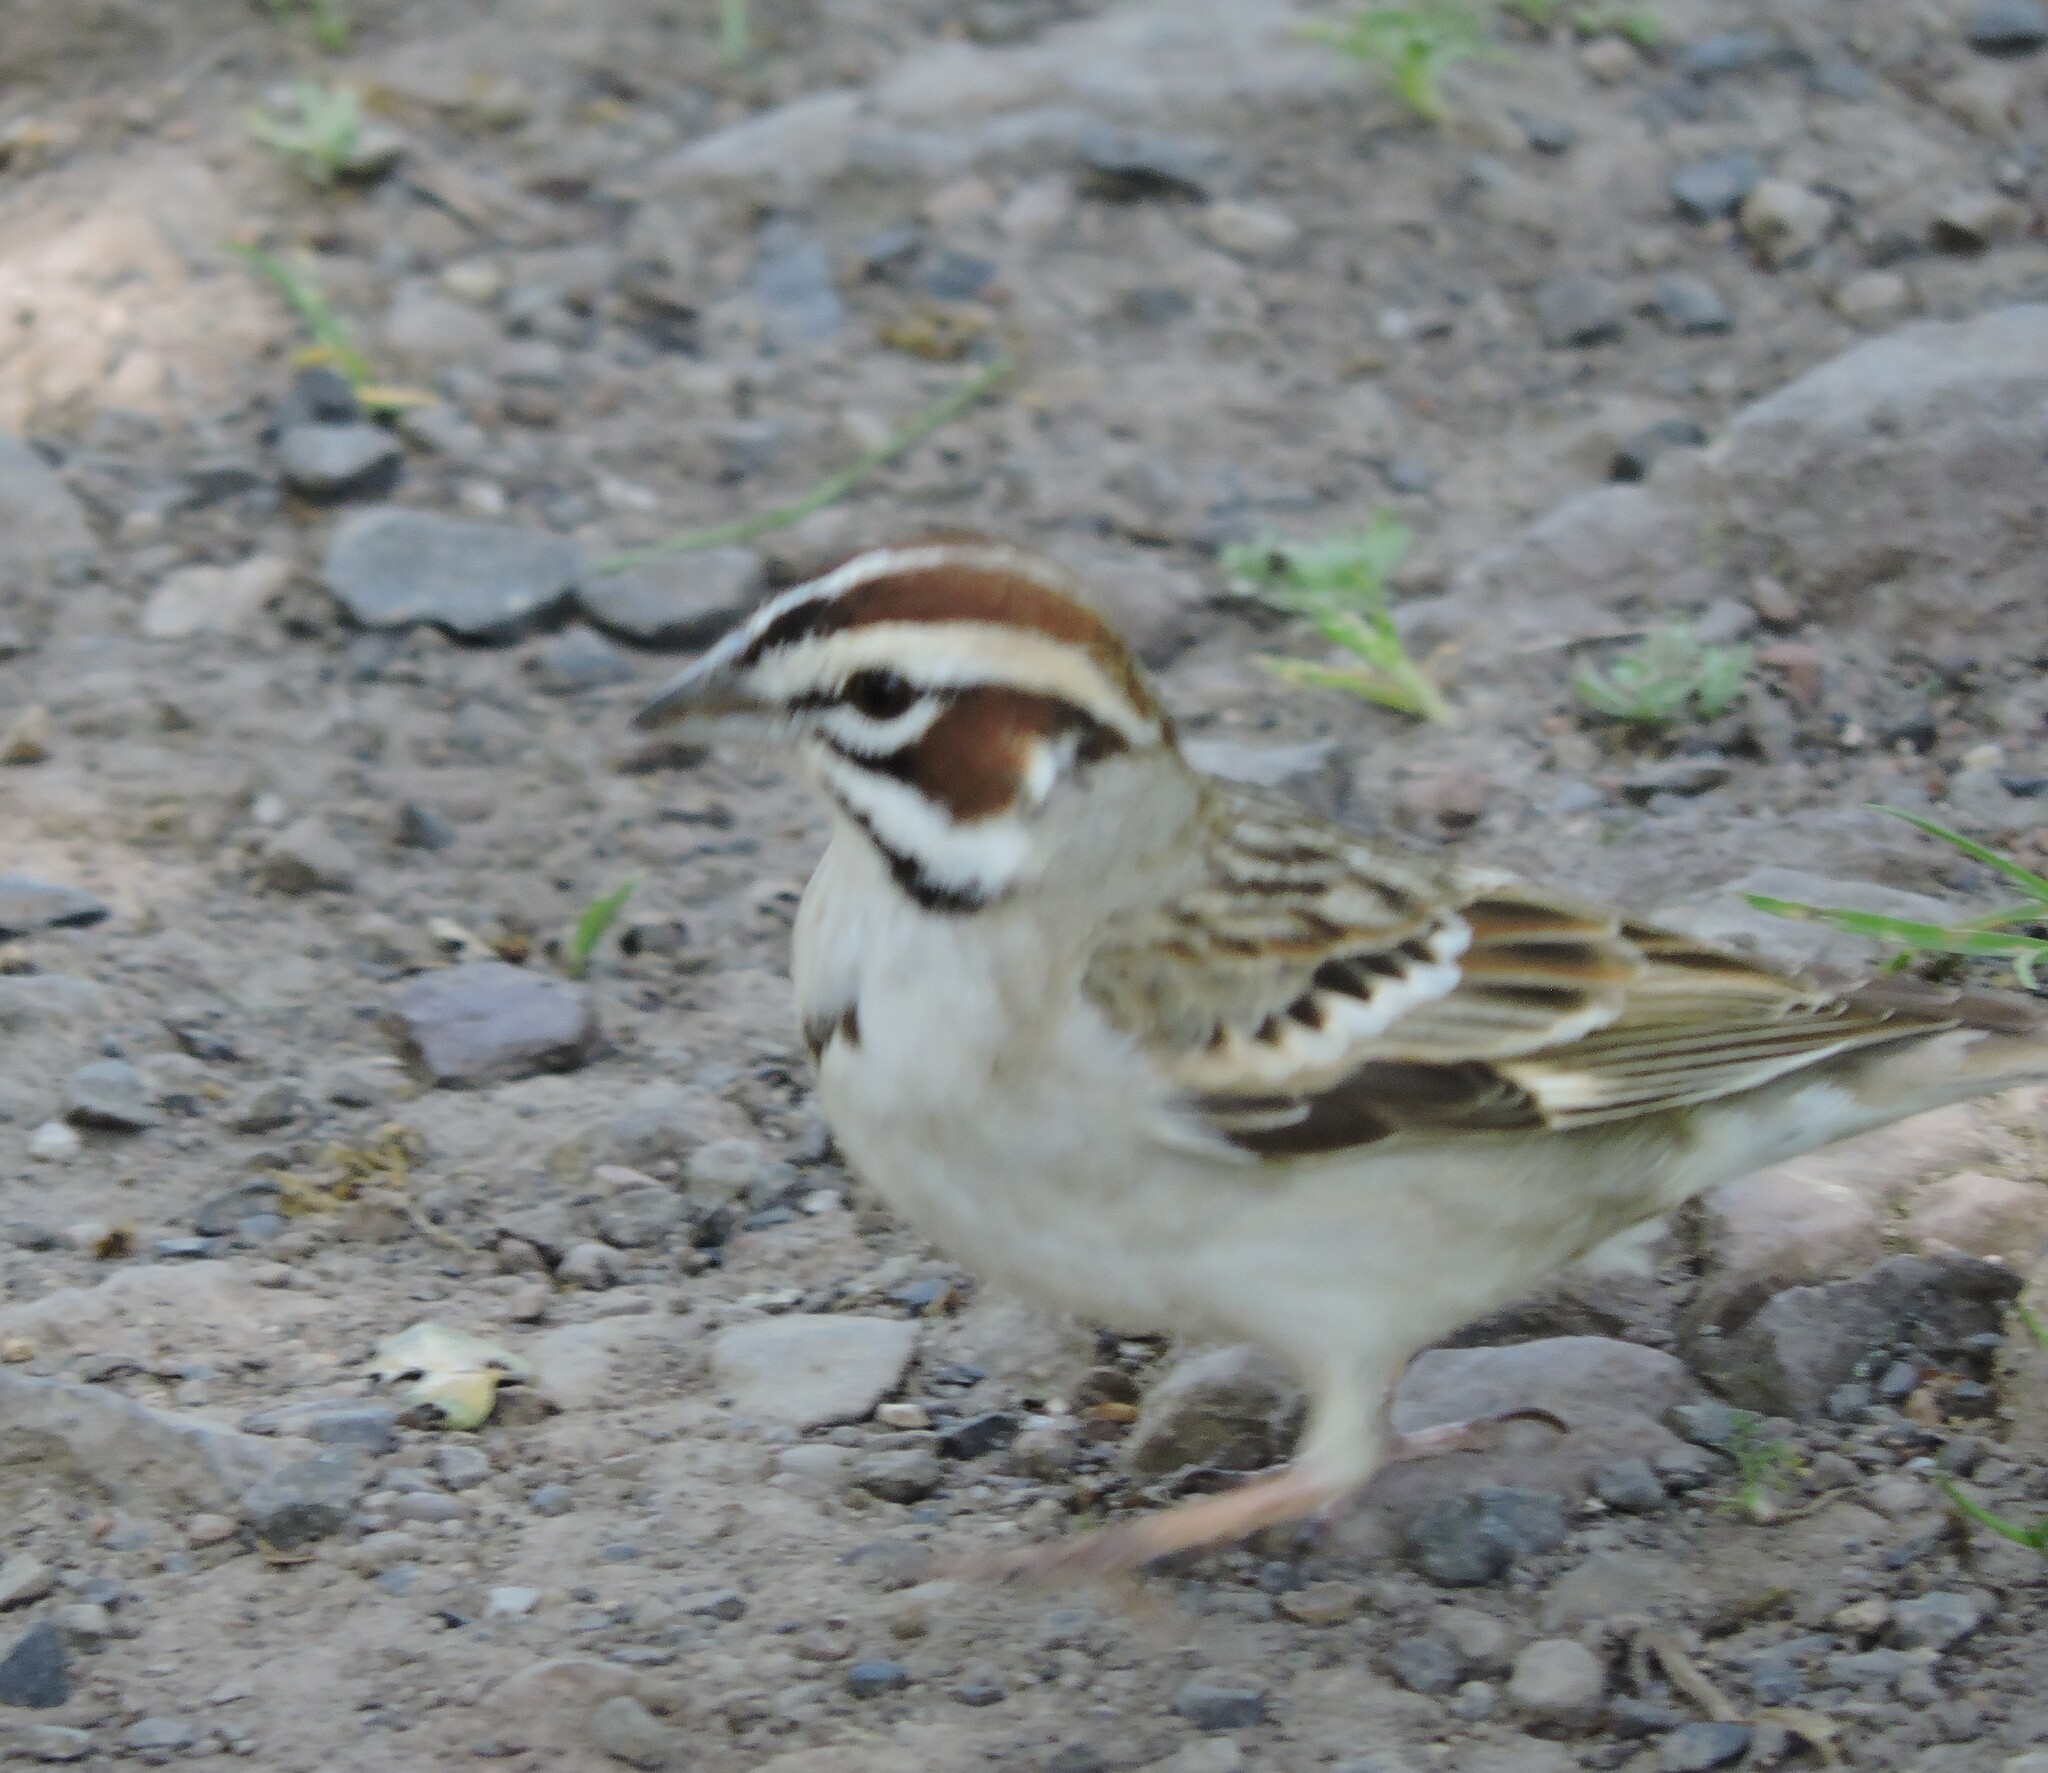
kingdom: Animalia
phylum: Chordata
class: Aves
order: Passeriformes
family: Passerellidae
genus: Chondestes
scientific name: Chondestes grammacus
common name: Lark sparrow
